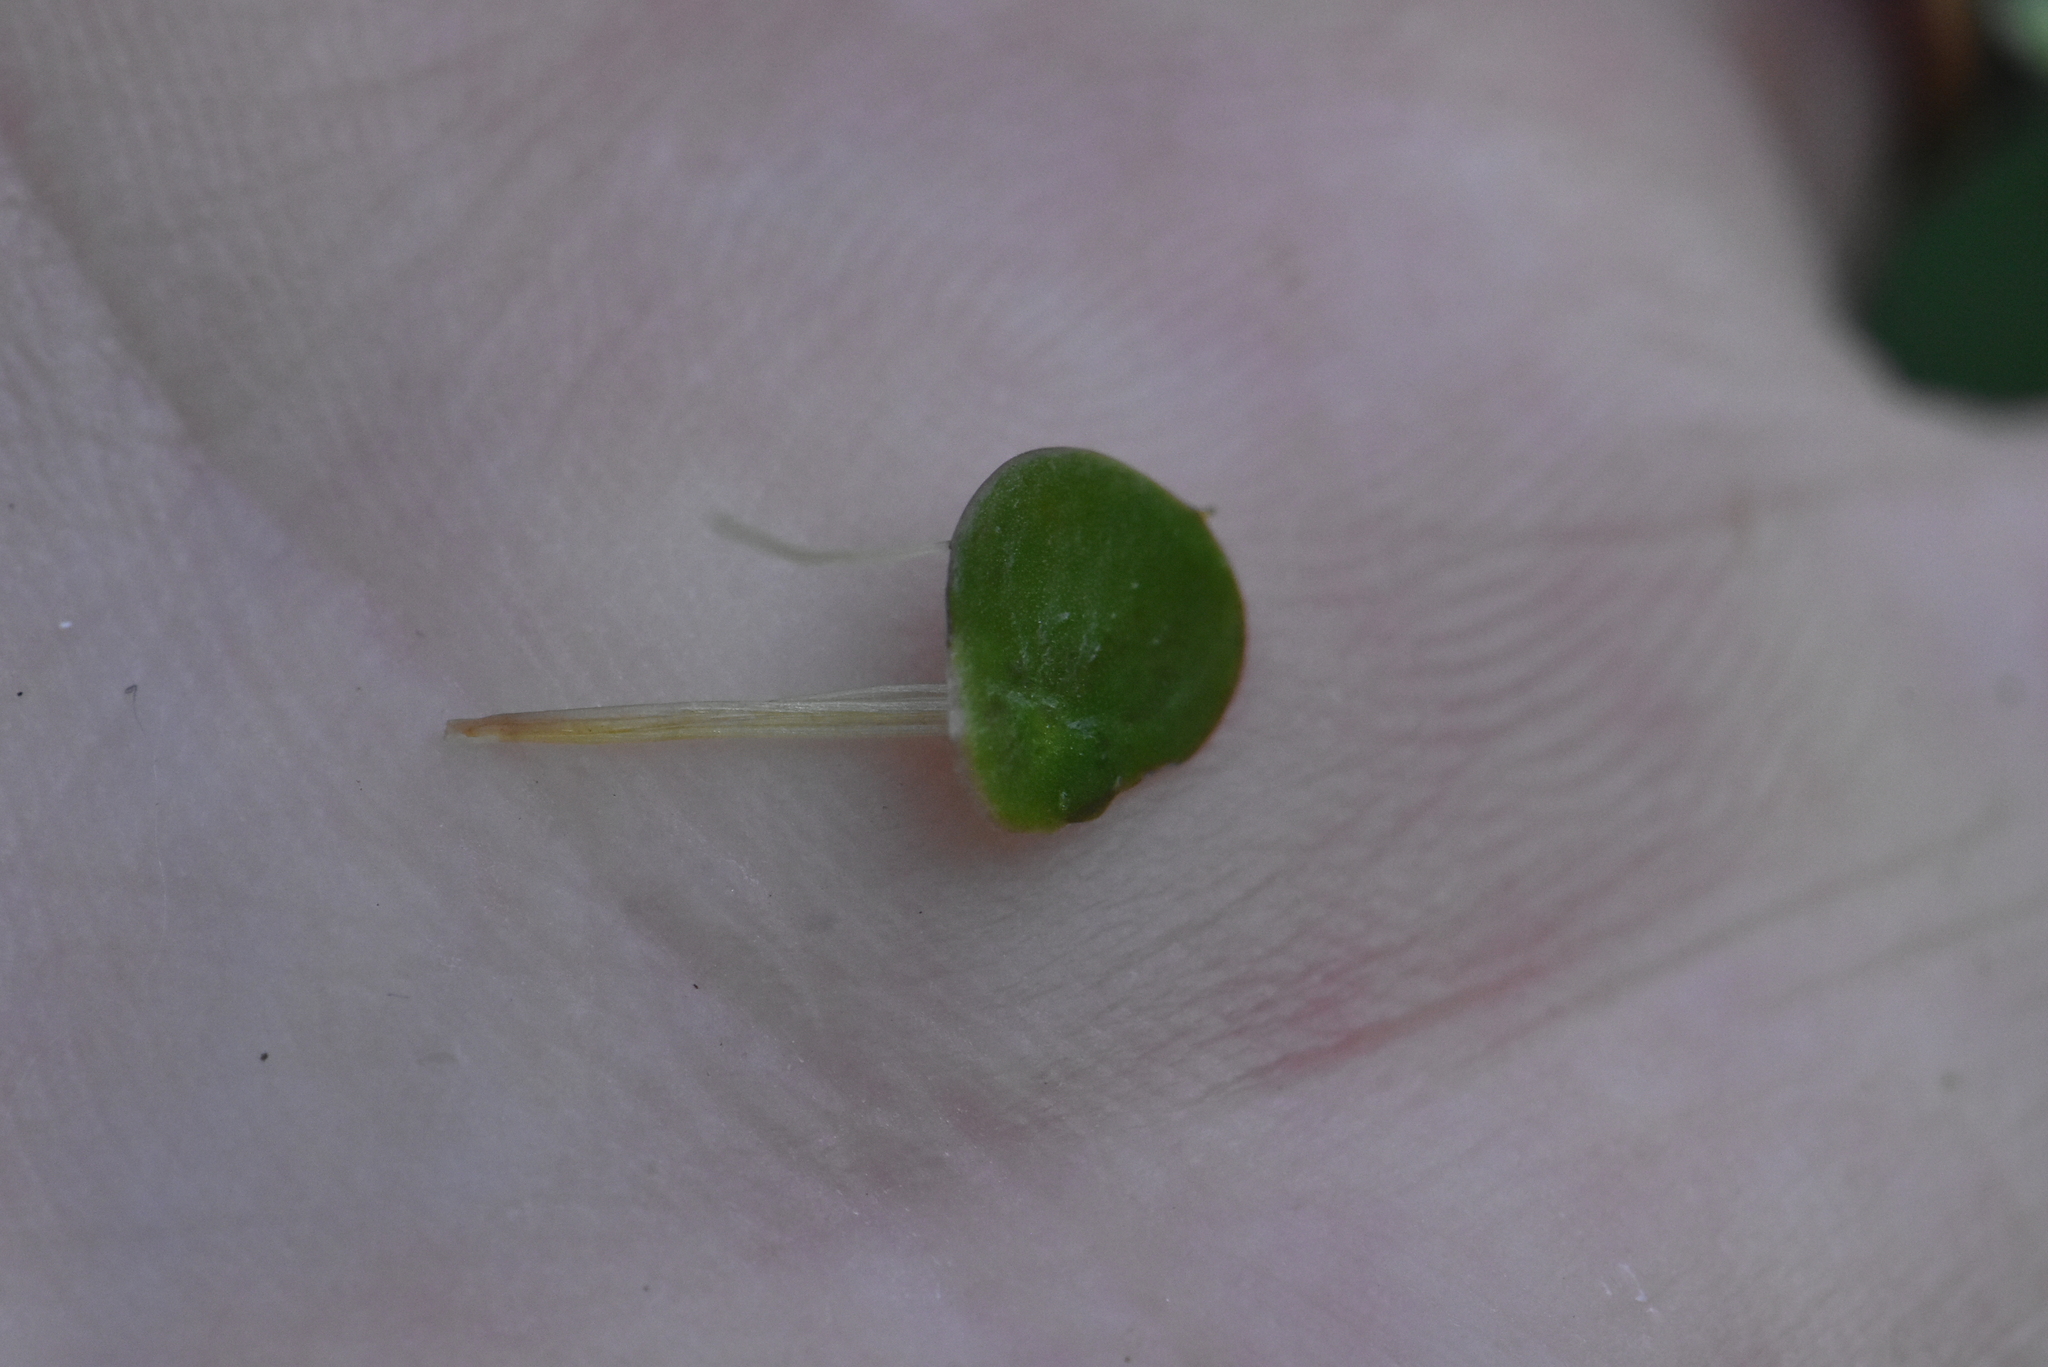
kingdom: Plantae
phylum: Tracheophyta
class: Liliopsida
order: Alismatales
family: Araceae
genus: Spirodela
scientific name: Spirodela polyrhiza
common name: Great duckweed
